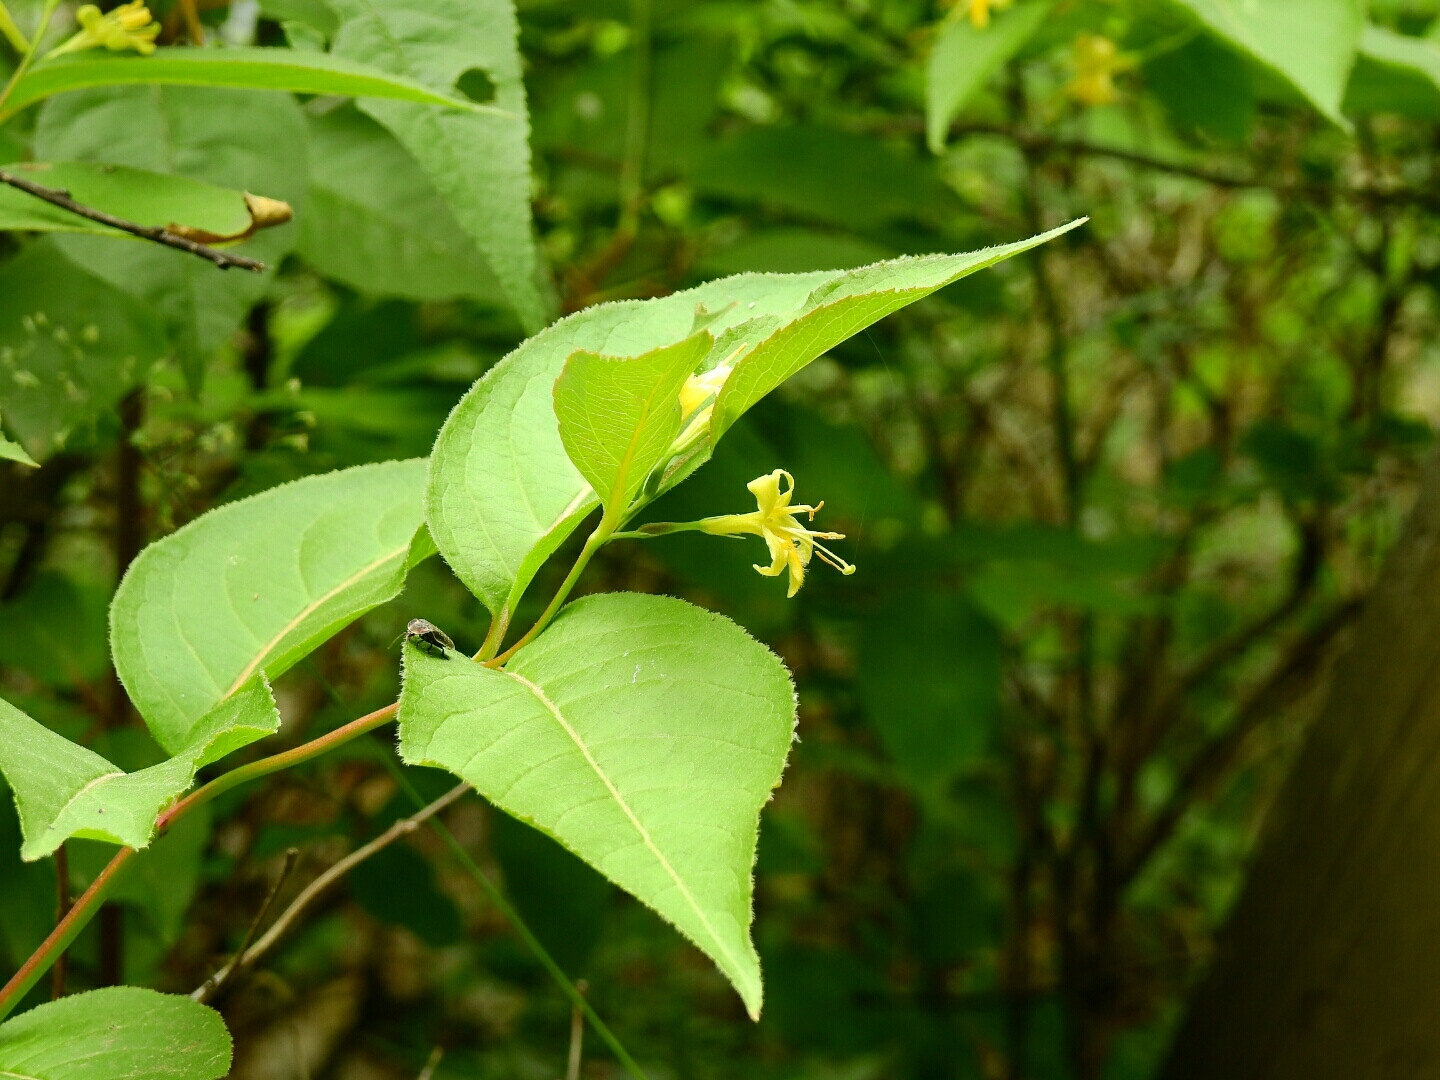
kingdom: Plantae
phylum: Tracheophyta
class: Magnoliopsida
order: Dipsacales
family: Caprifoliaceae
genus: Diervilla
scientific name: Diervilla lonicera
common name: Bush-honeysuckle
